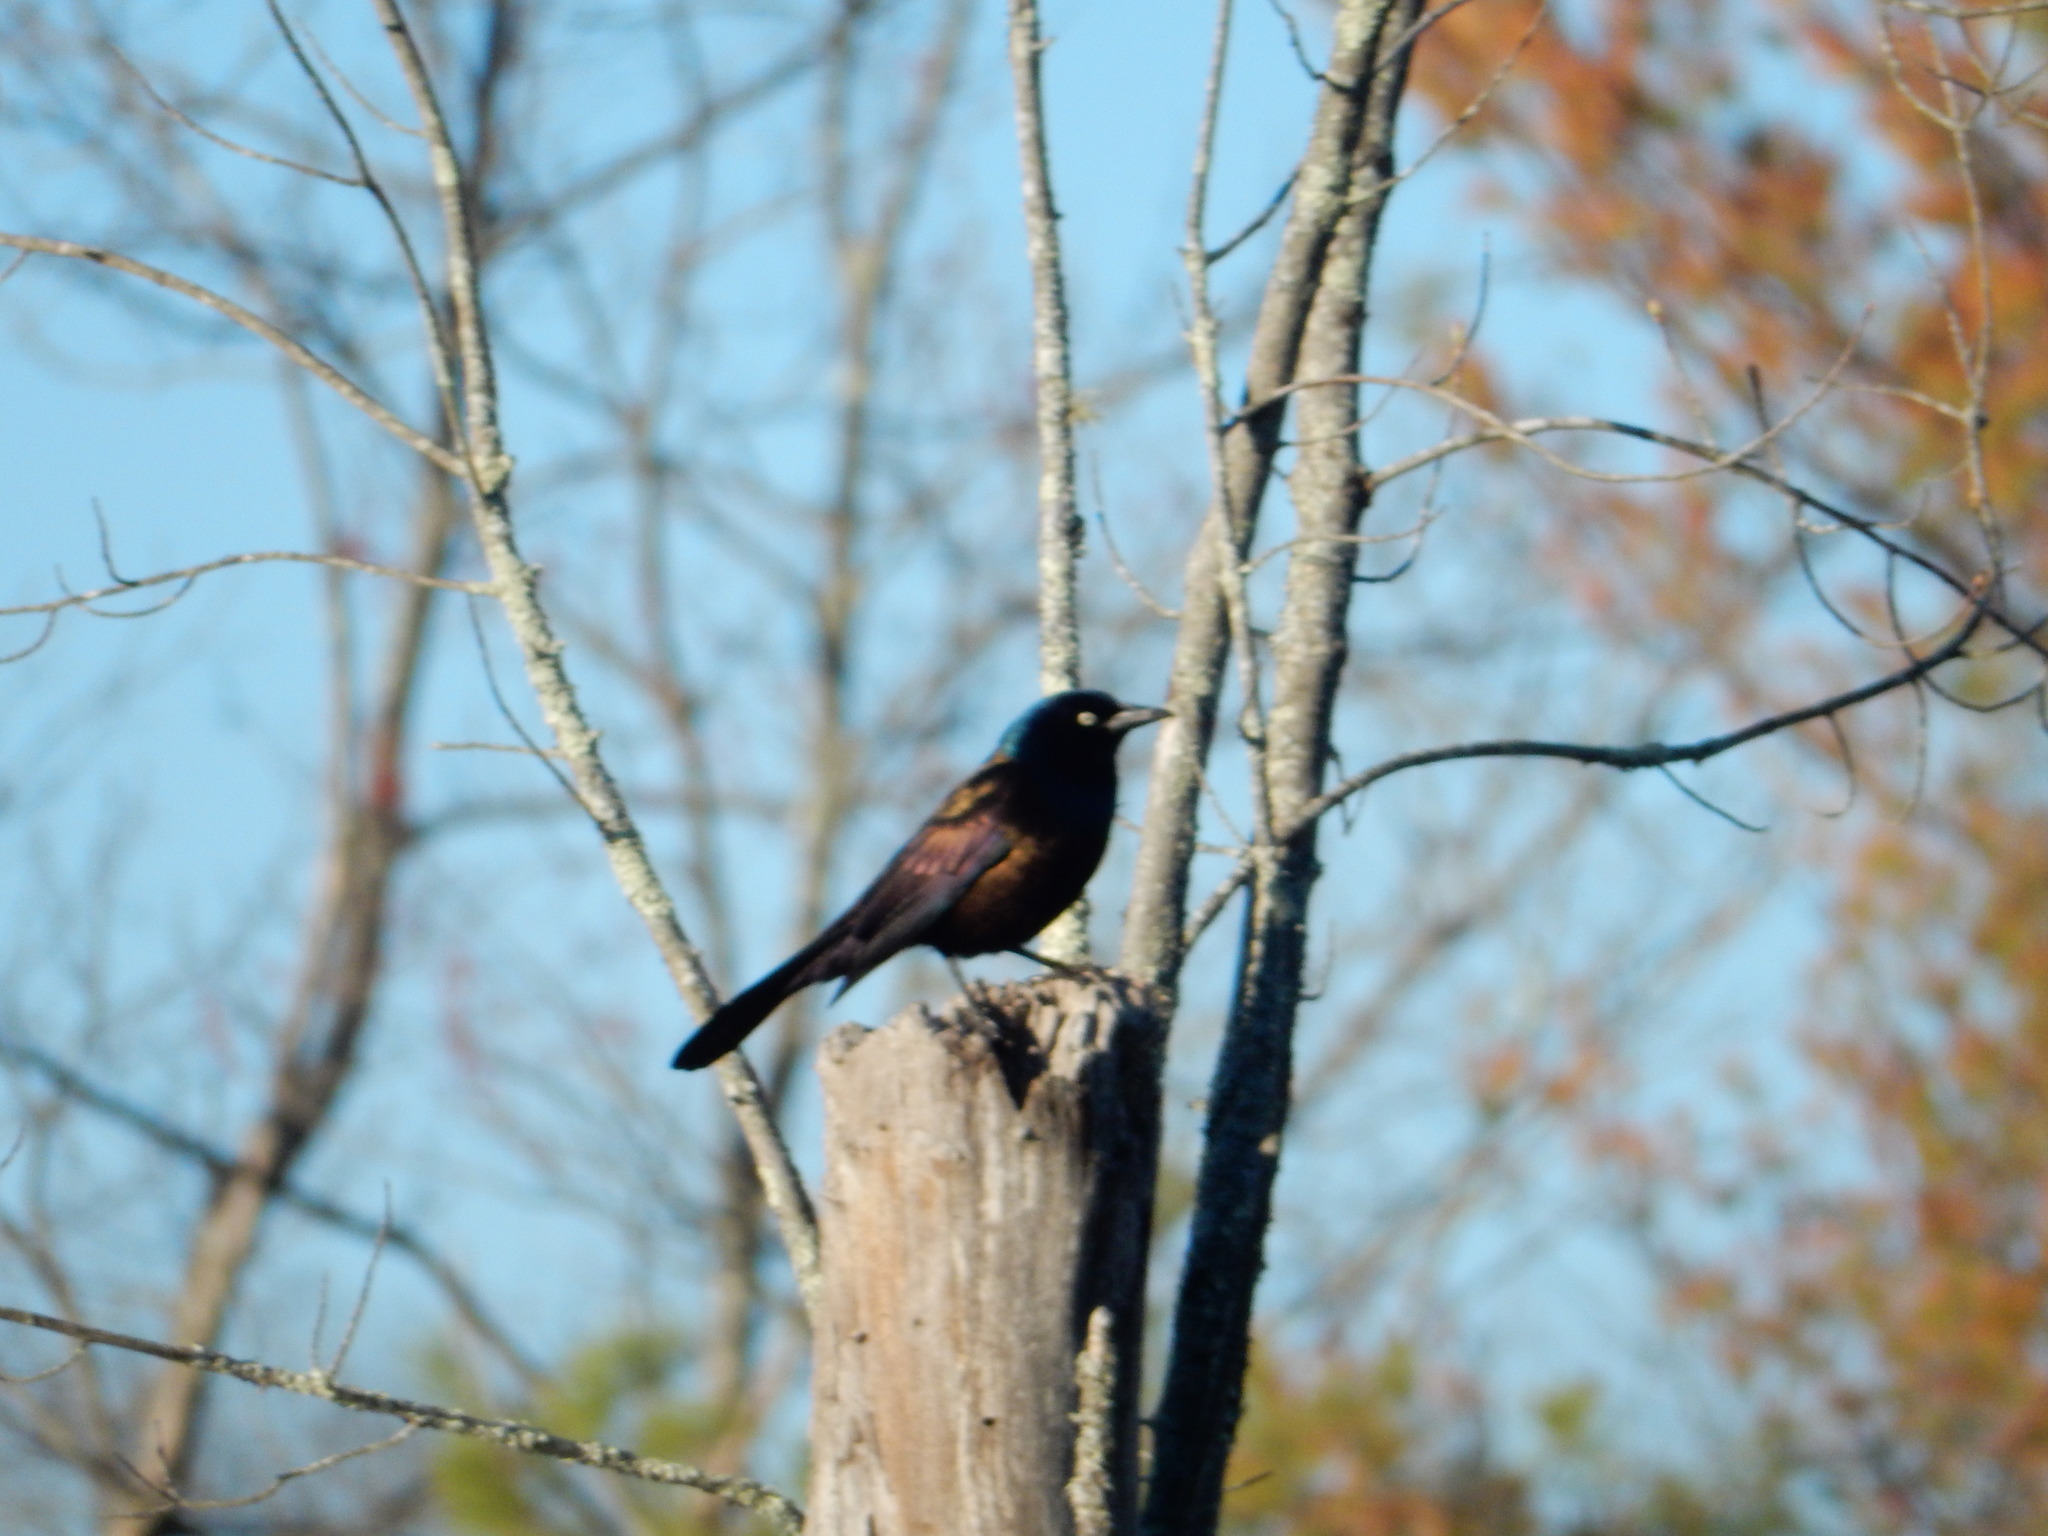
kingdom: Animalia
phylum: Chordata
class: Aves
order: Passeriformes
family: Icteridae
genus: Quiscalus
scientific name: Quiscalus quiscula
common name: Common grackle
